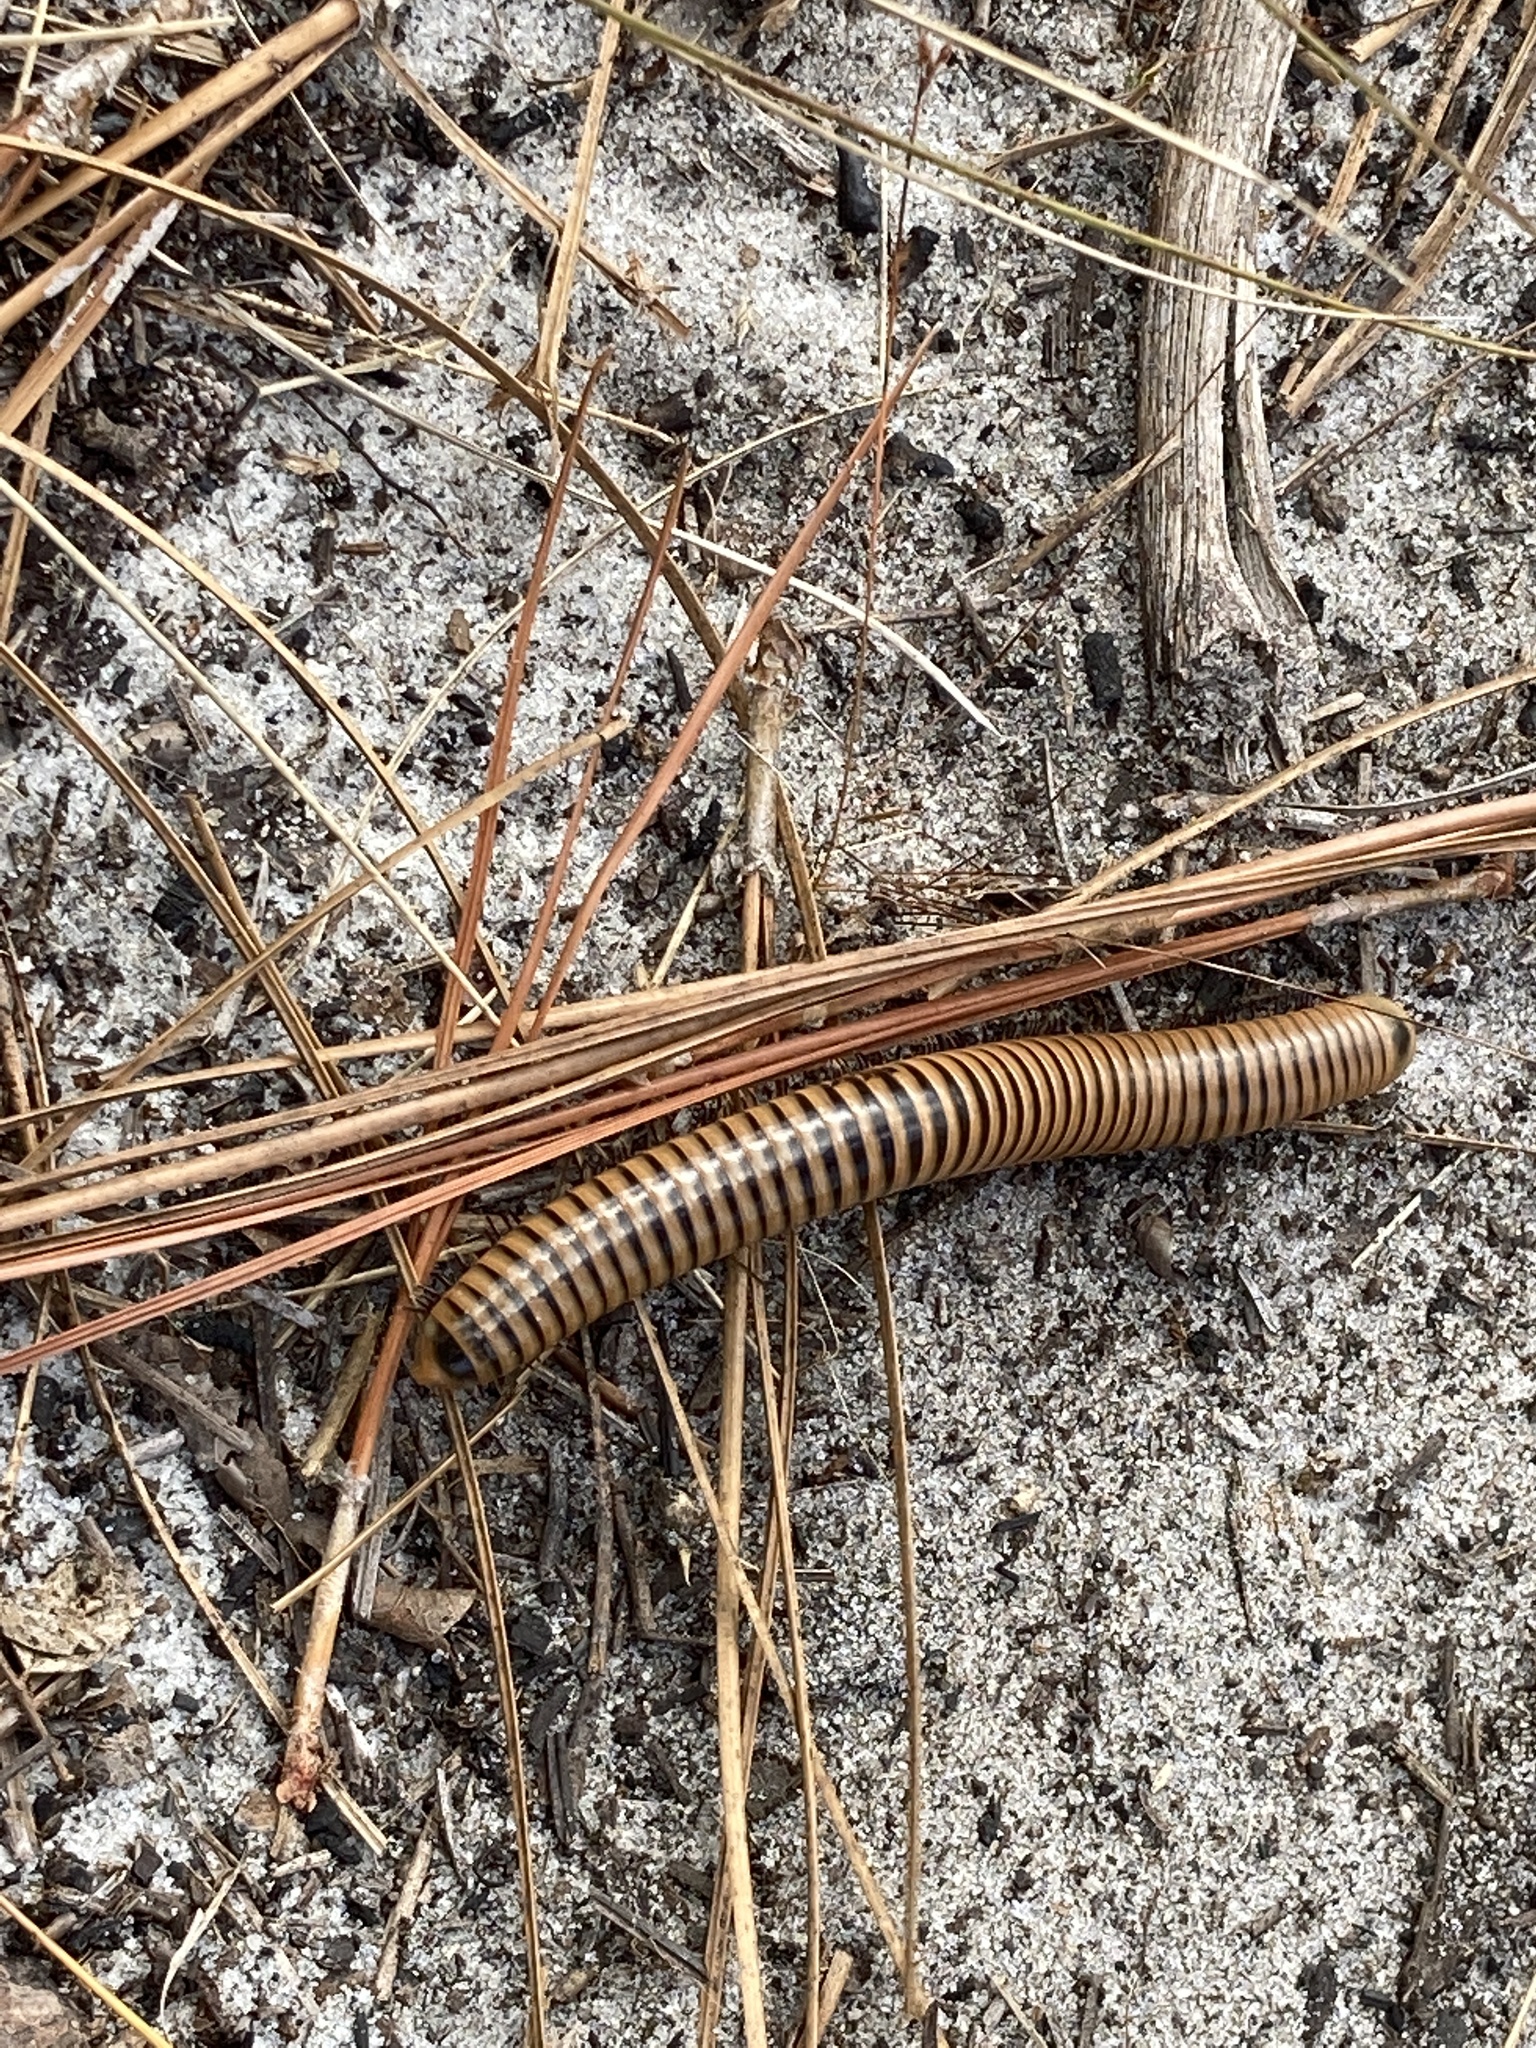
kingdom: Animalia
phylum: Arthropoda
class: Diplopoda
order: Spirobolida
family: Spirobolidae
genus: Chicobolus
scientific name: Chicobolus spinigerus
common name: Florida ivory millipede
